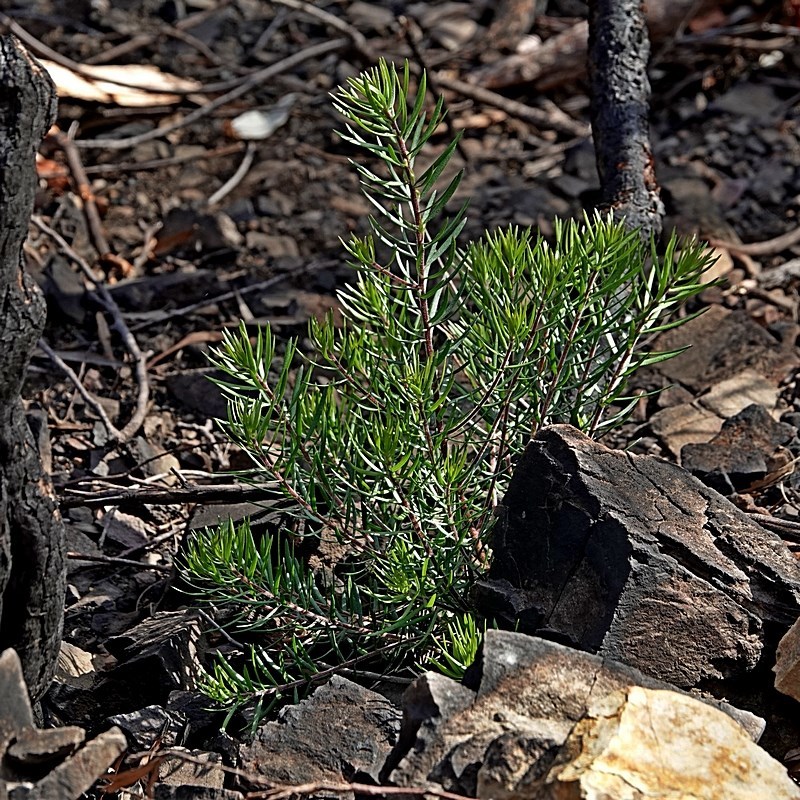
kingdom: Plantae
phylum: Tracheophyta
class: Magnoliopsida
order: Proteales
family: Proteaceae
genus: Persoonia
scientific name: Persoonia linearis
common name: Narrow-leaf geebung
